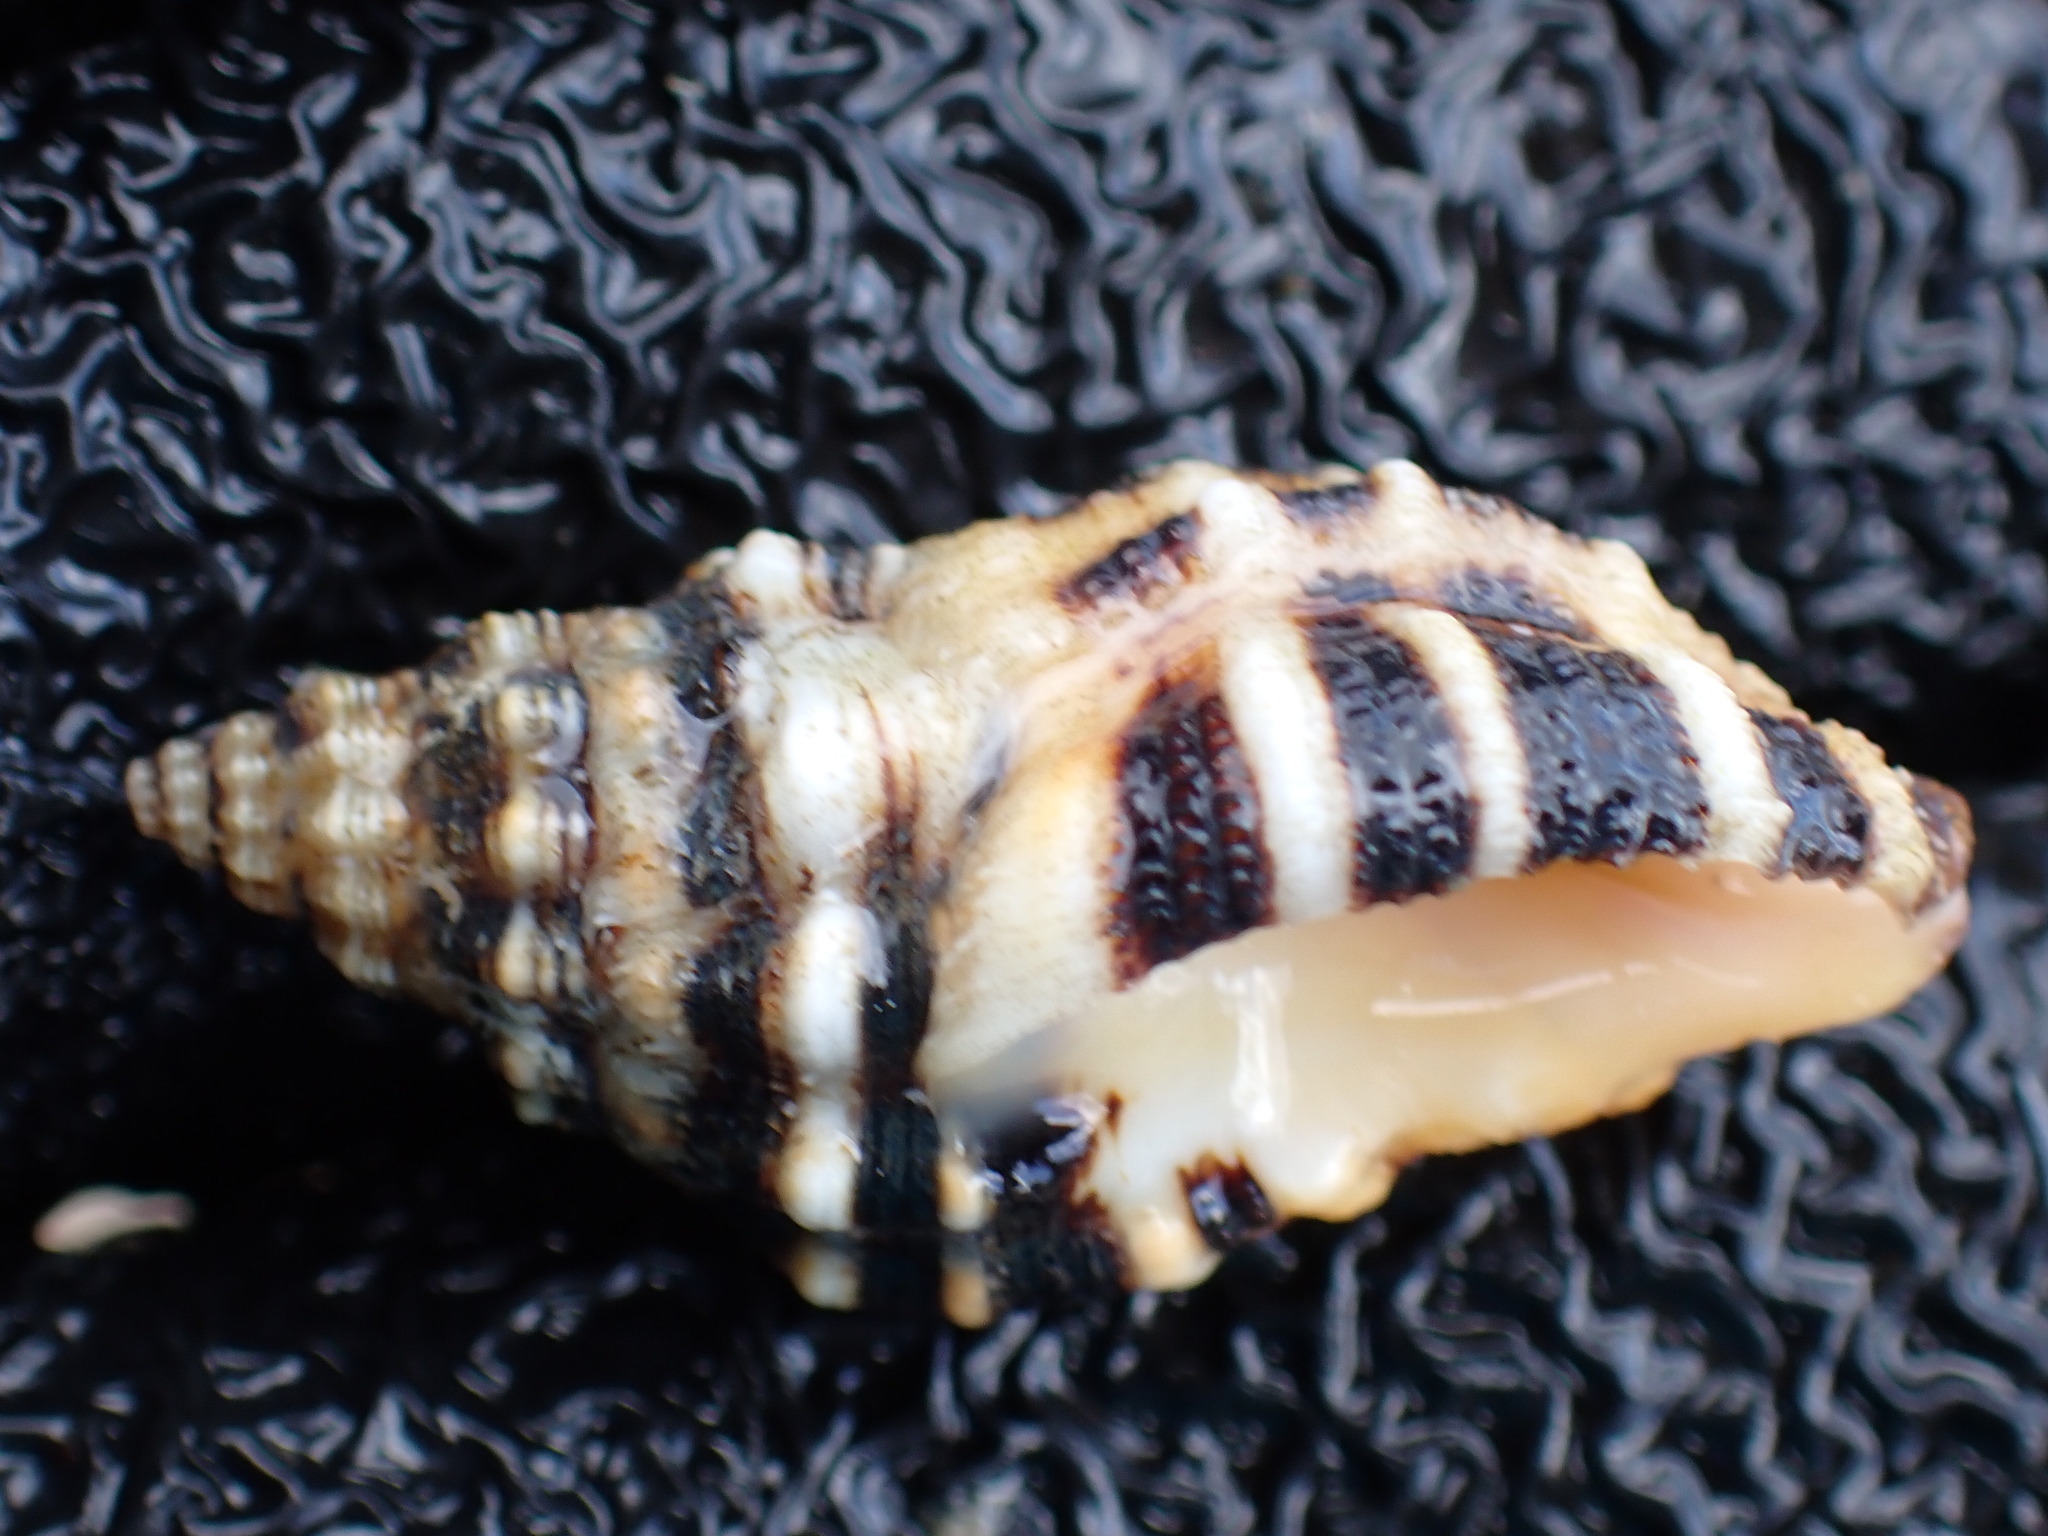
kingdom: Animalia
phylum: Mollusca
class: Gastropoda
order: Neogastropoda
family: Muricidae
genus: Cronia
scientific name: Cronia aurantiaca
